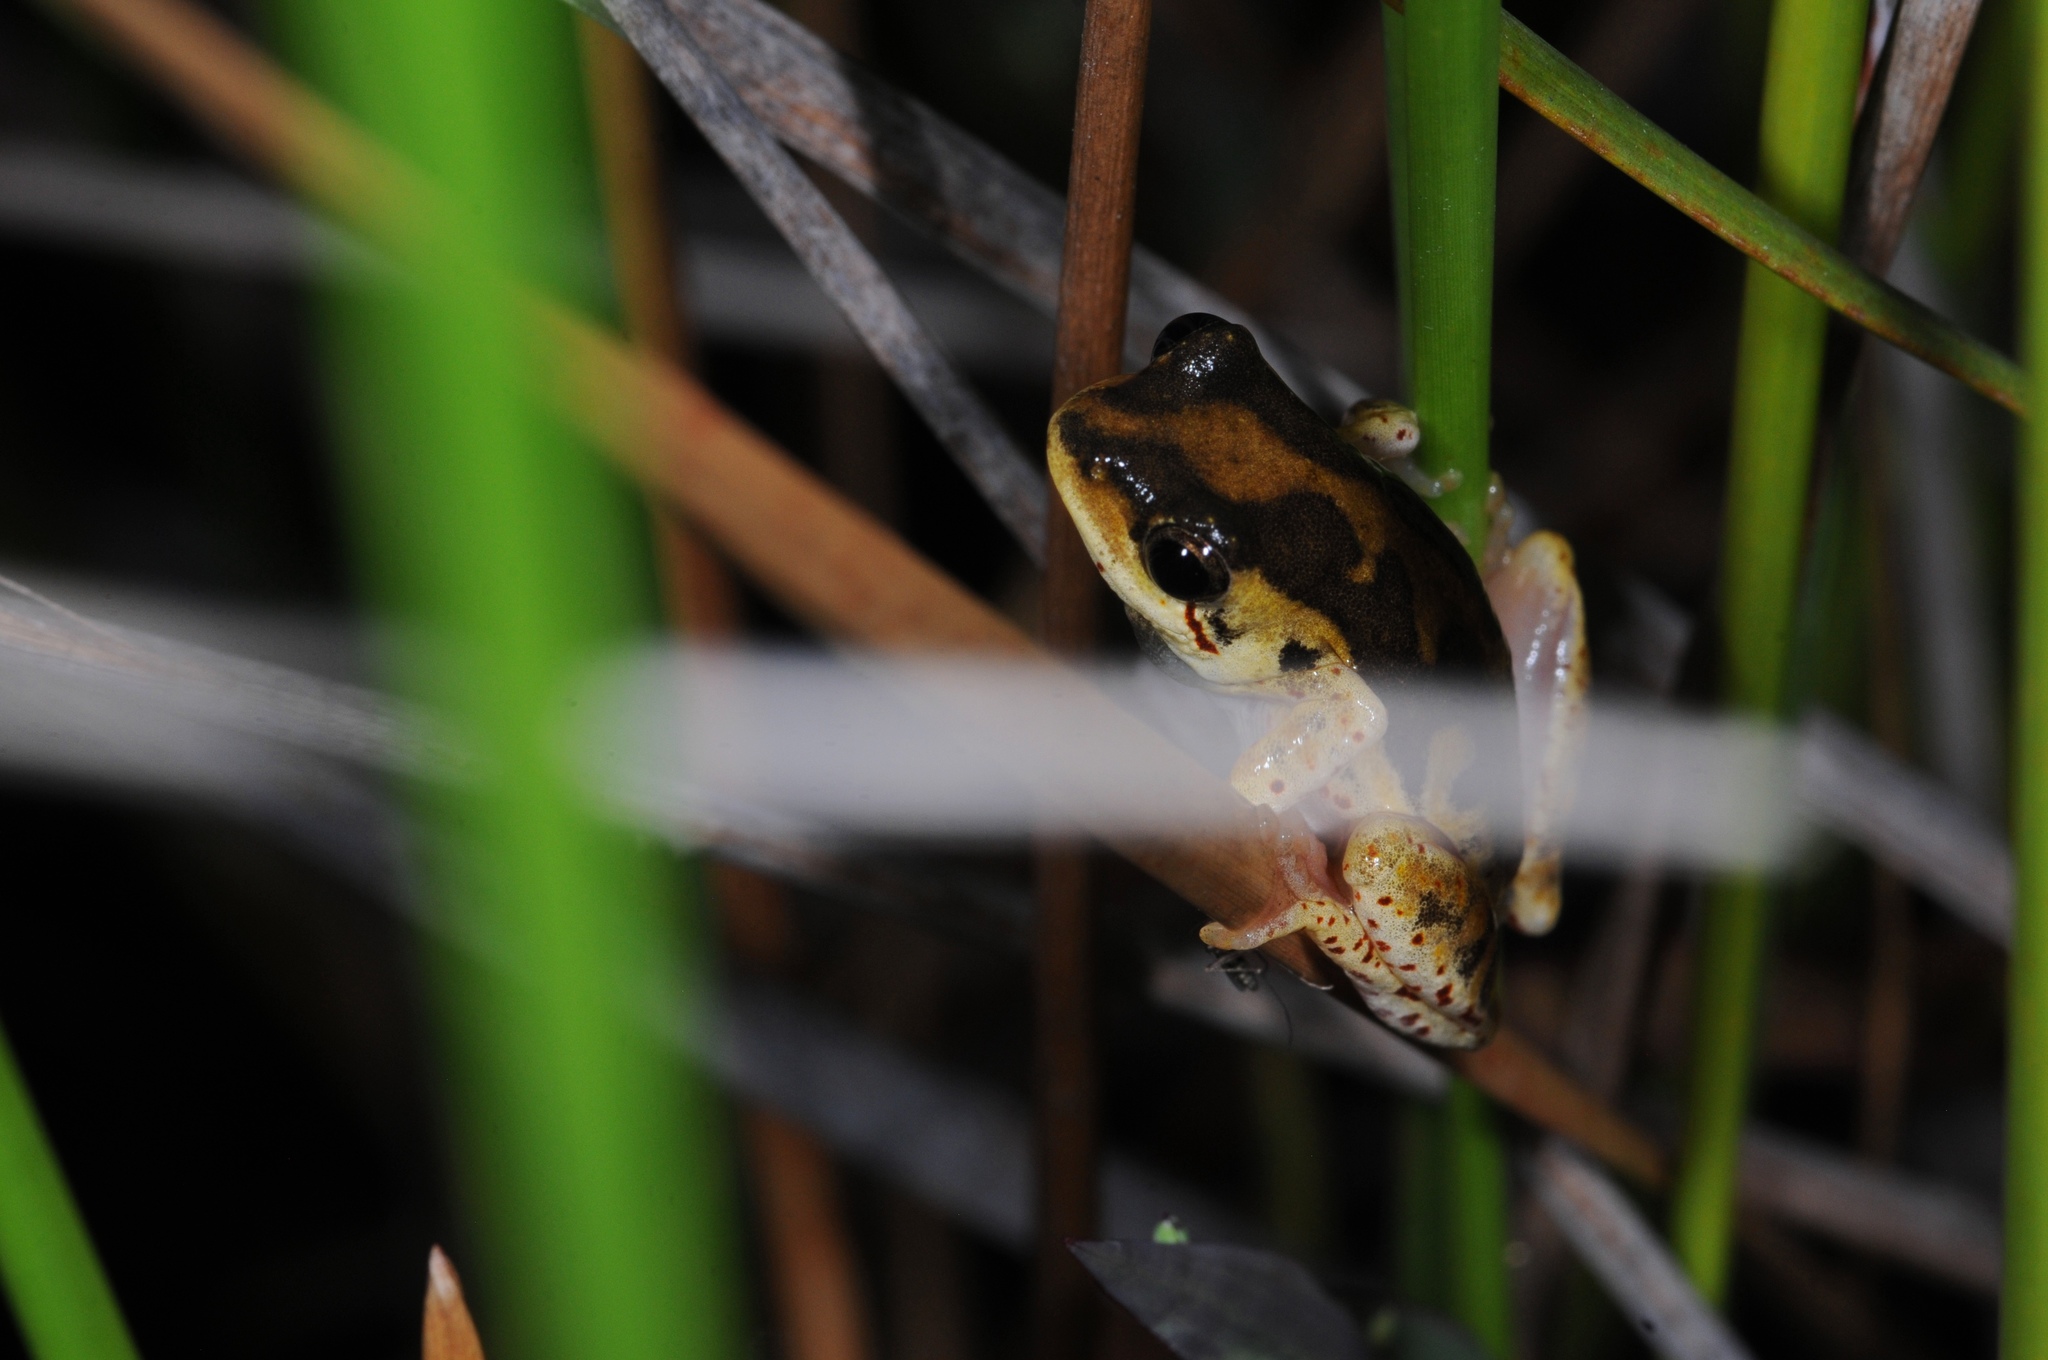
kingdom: Animalia
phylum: Chordata
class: Amphibia
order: Anura
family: Hyperoliidae
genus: Hyperolius
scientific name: Hyperolius marmoratus
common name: Painted reed frog
